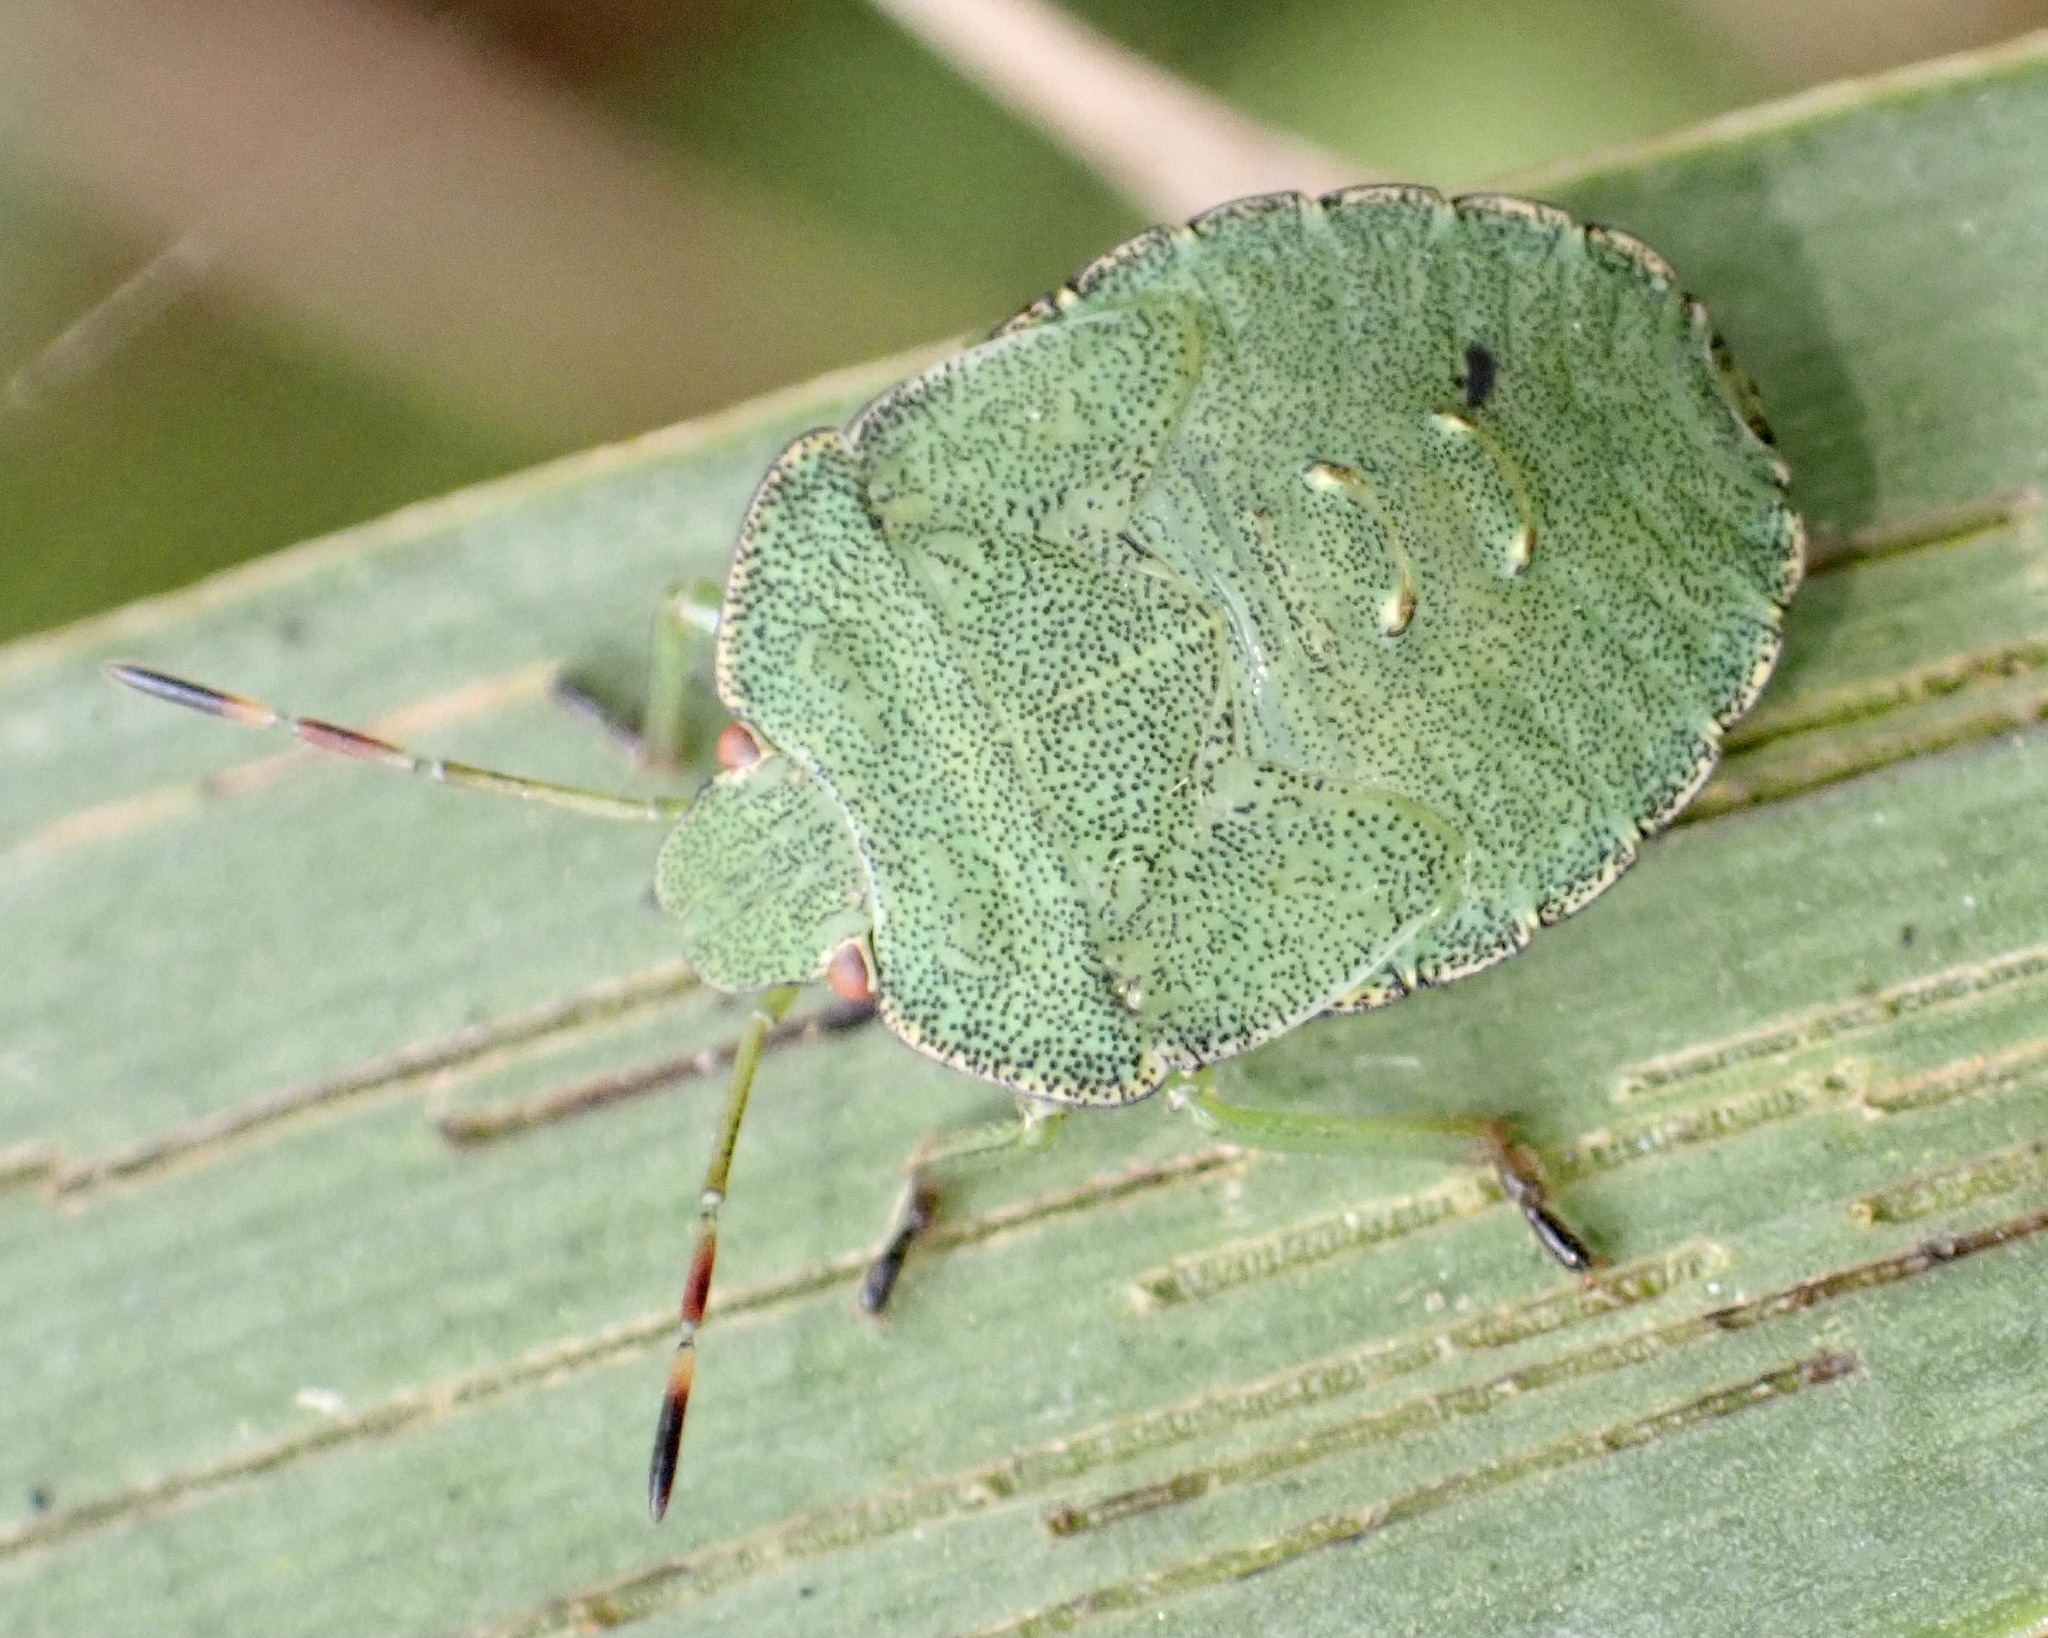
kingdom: Animalia
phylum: Arthropoda
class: Insecta
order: Hemiptera
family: Pentatomidae
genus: Palomena
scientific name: Palomena prasina
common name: Green shieldbug
